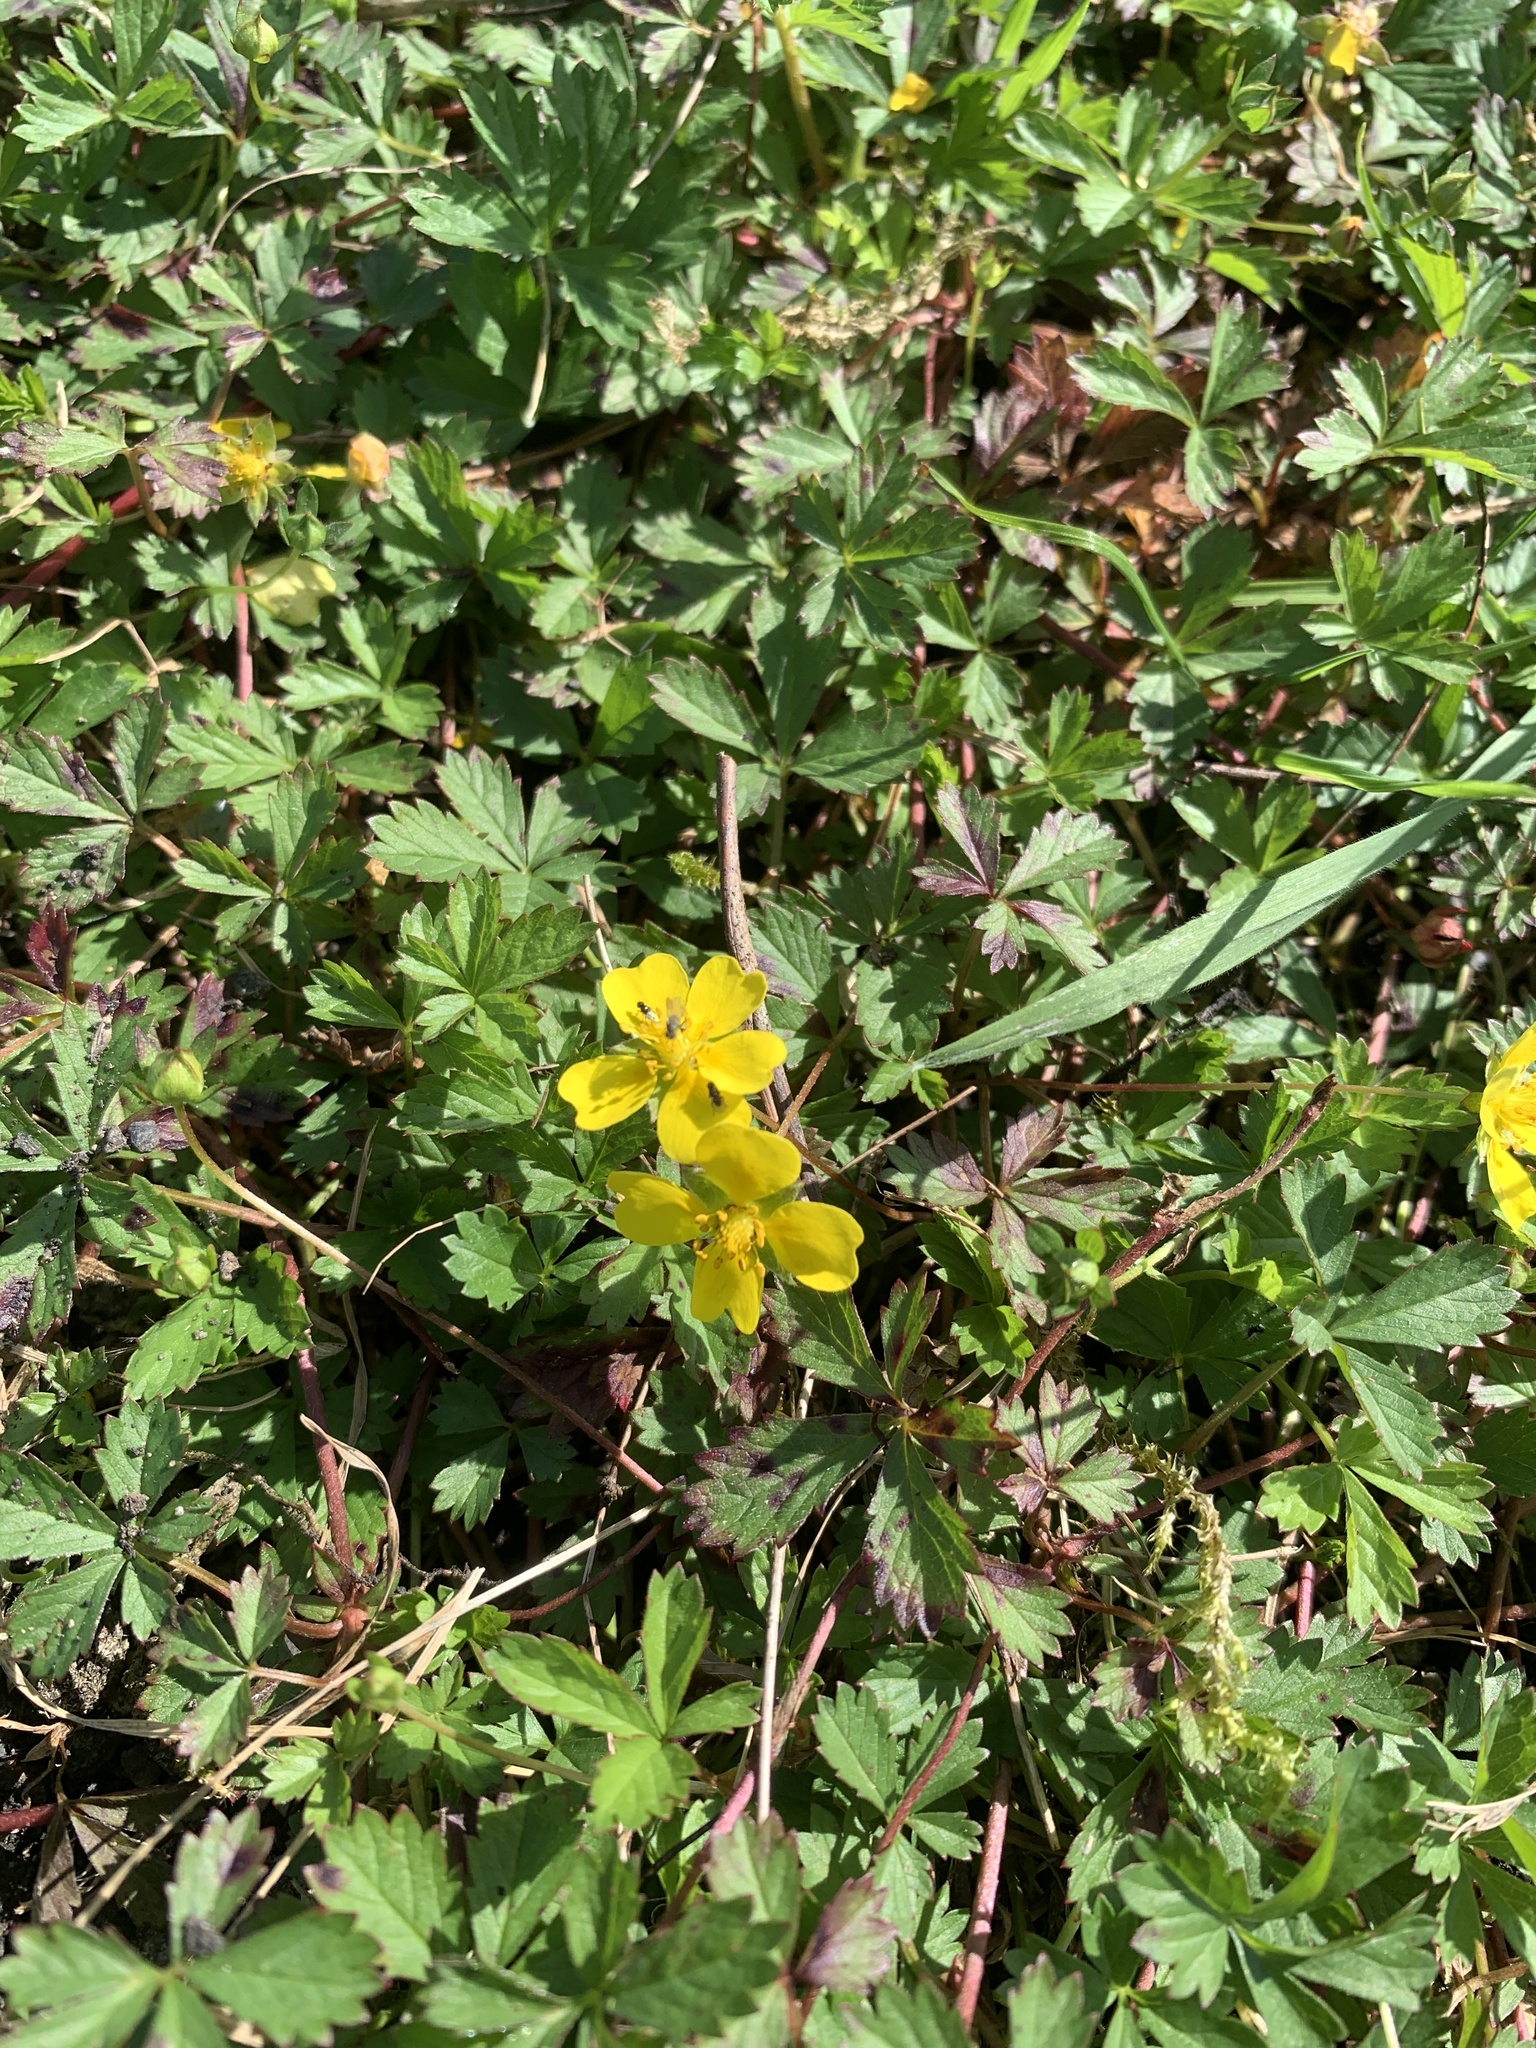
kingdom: Plantae
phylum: Tracheophyta
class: Magnoliopsida
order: Rosales
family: Rosaceae
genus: Potentilla
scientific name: Potentilla reptans
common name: Creeping cinquefoil
